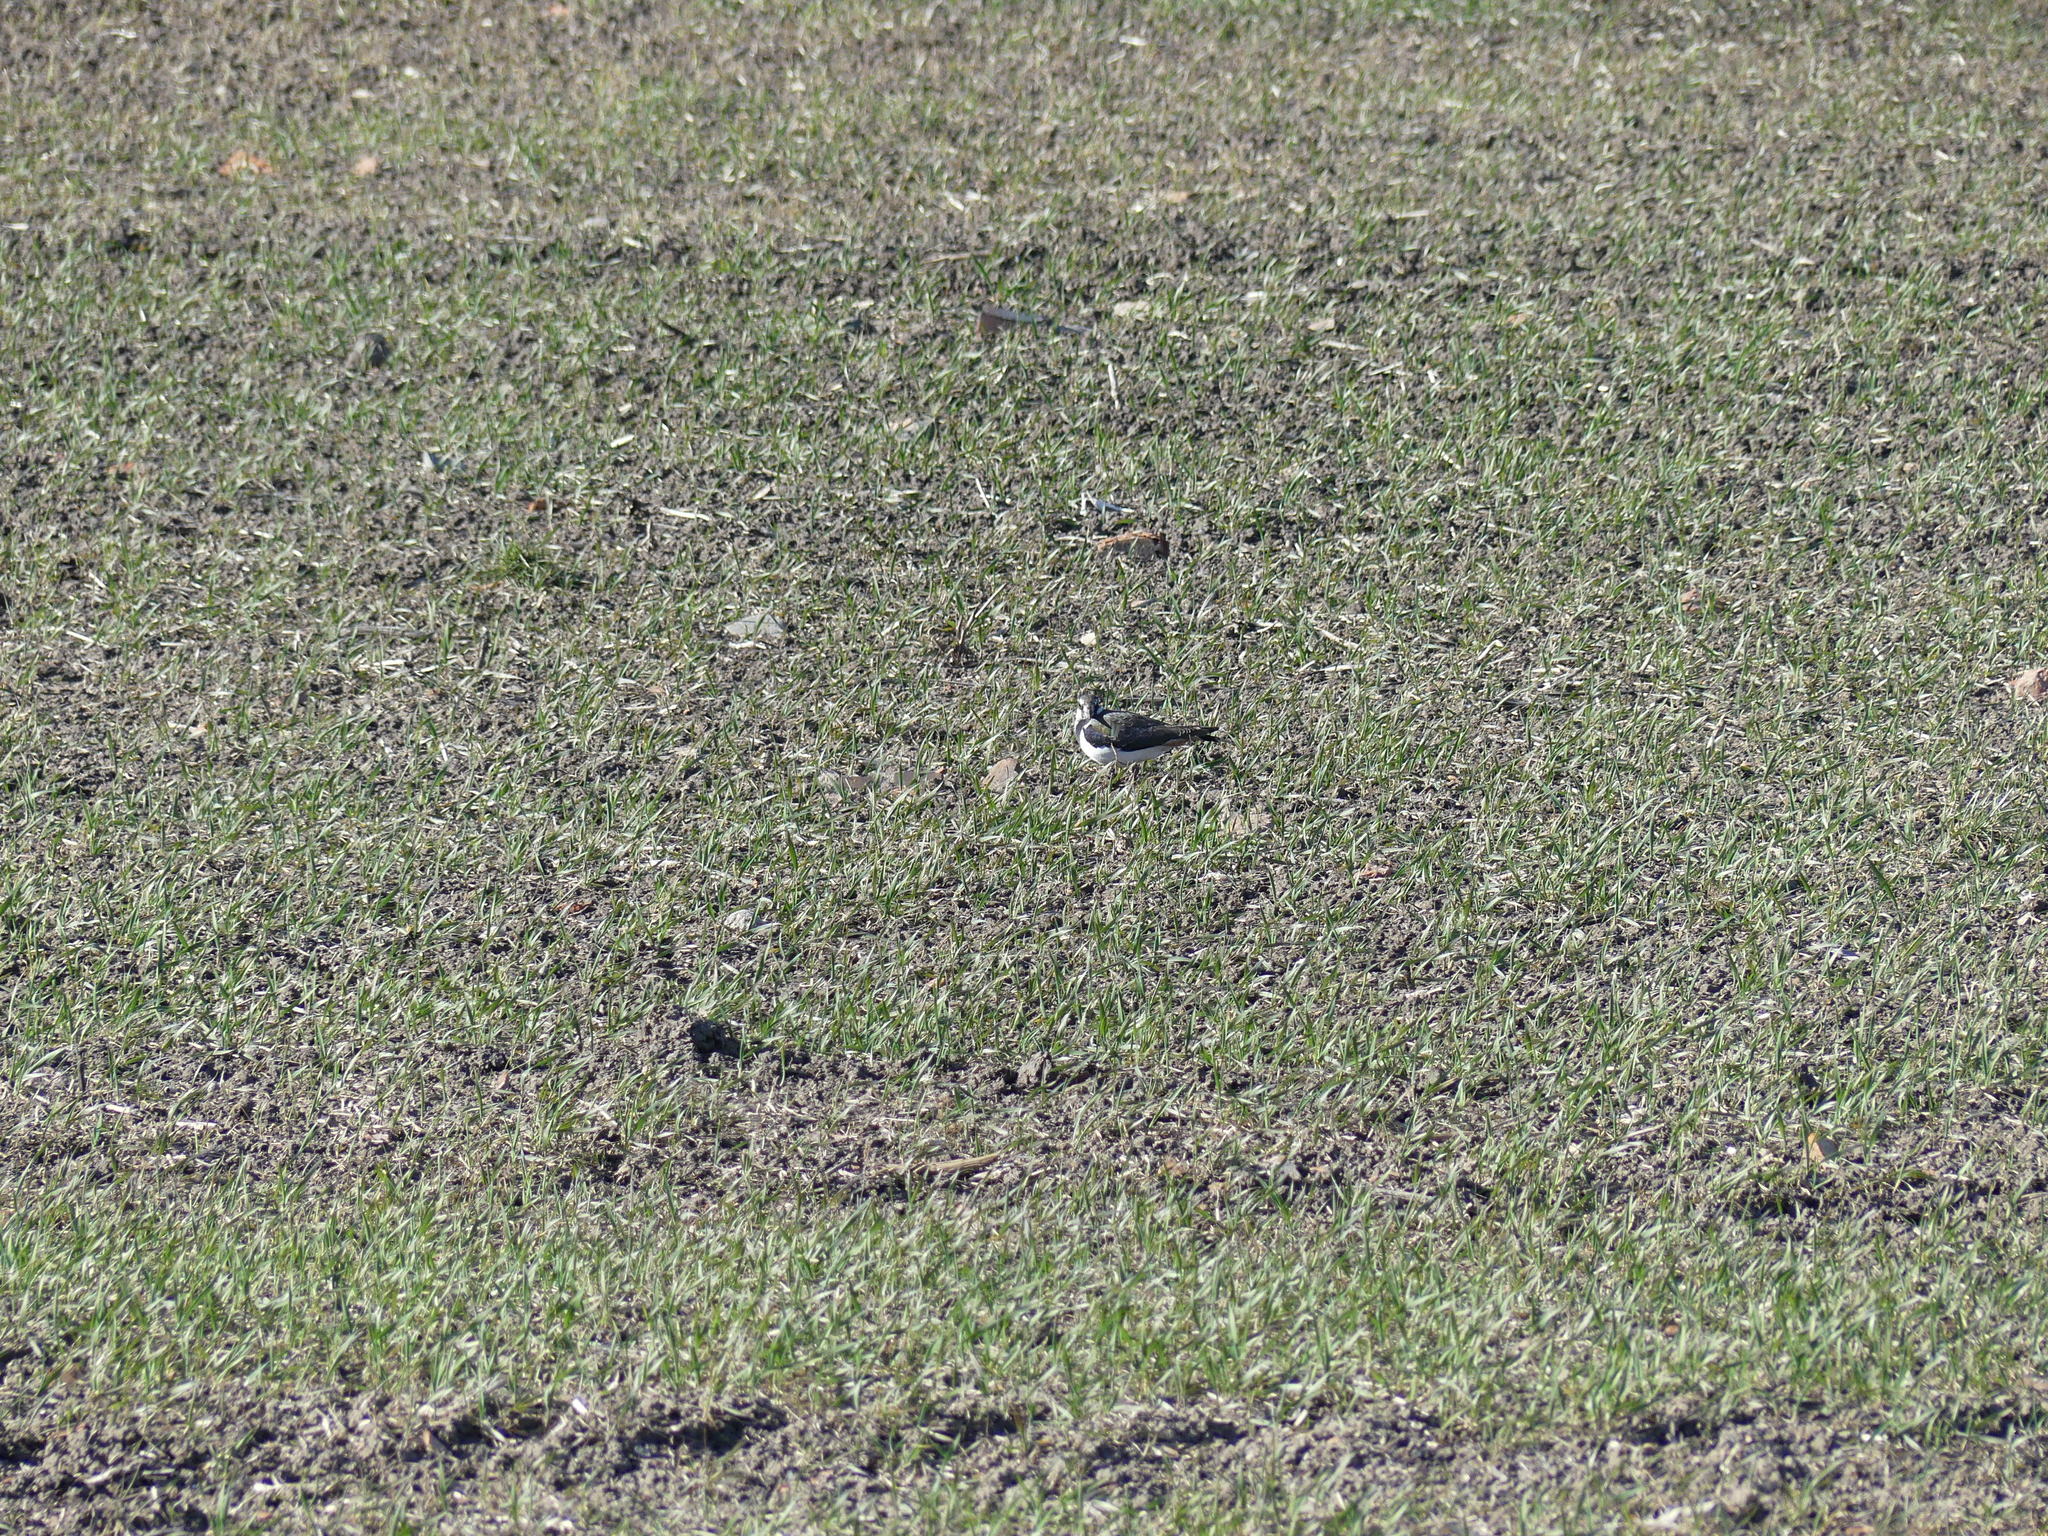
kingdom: Animalia
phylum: Chordata
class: Aves
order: Charadriiformes
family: Charadriidae
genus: Vanellus
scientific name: Vanellus vanellus
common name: Northern lapwing
